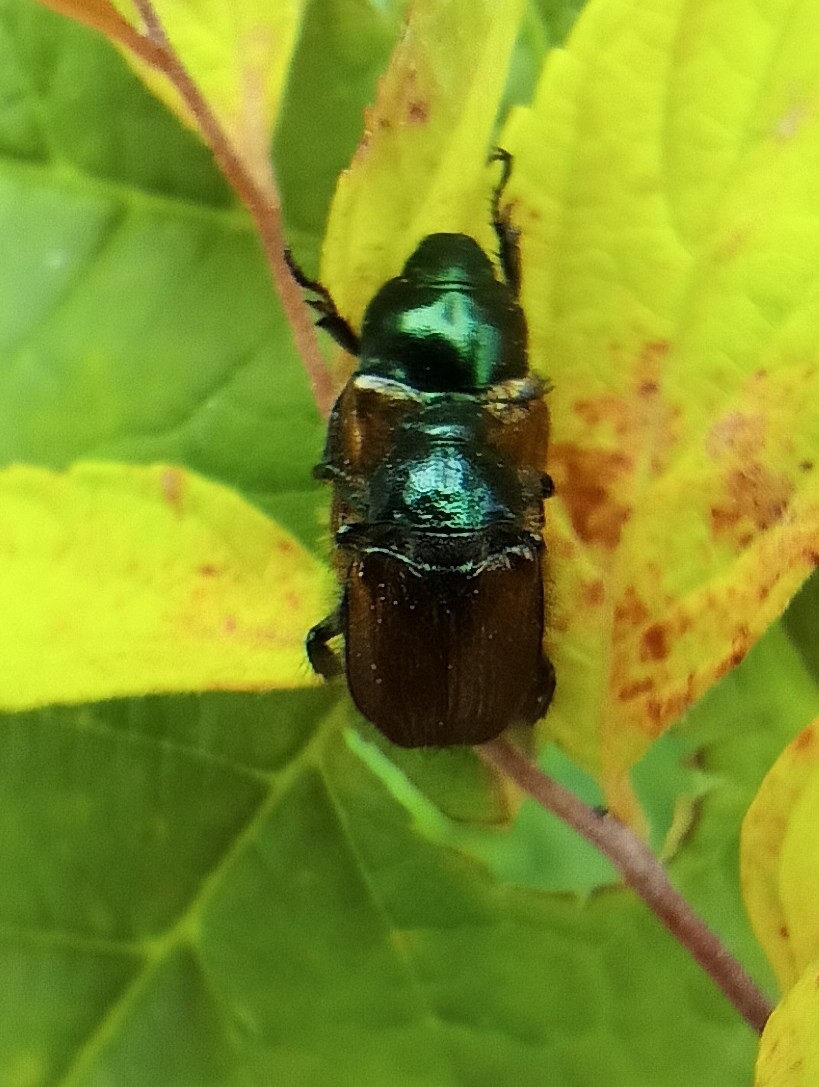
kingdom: Animalia
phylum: Arthropoda
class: Insecta
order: Coleoptera
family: Scarabaeidae
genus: Phyllopertha
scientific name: Phyllopertha horticola
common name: Garden chafer
